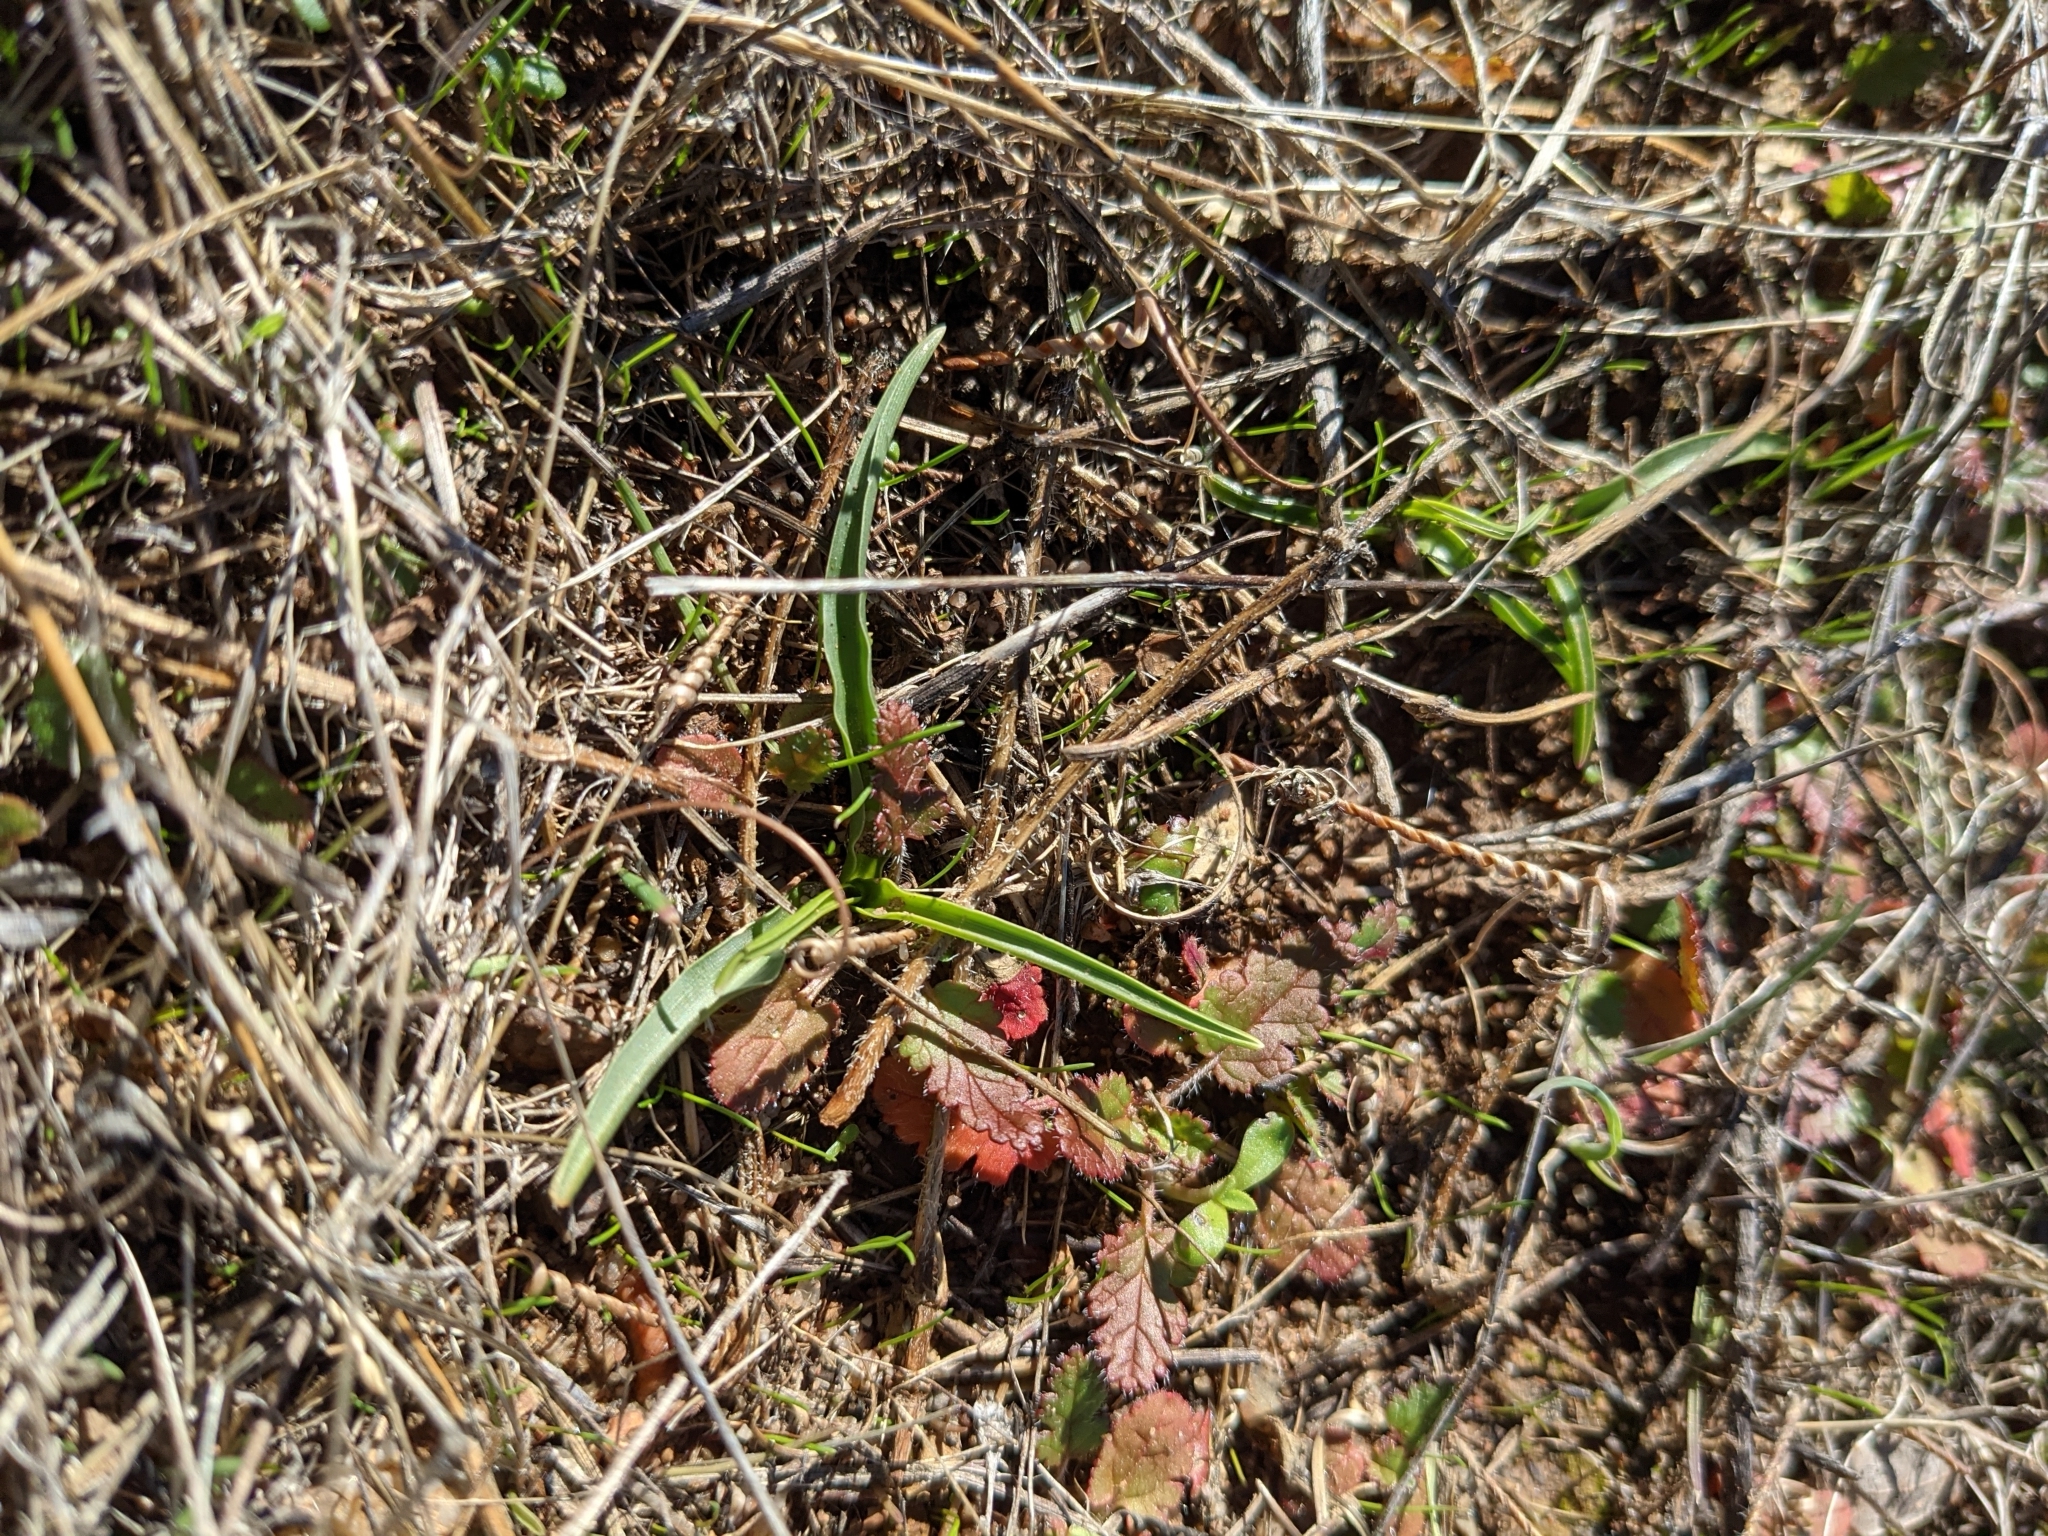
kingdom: Plantae
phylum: Tracheophyta
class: Liliopsida
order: Asparagales
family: Asparagaceae
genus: Hooveria
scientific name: Hooveria purpurea
